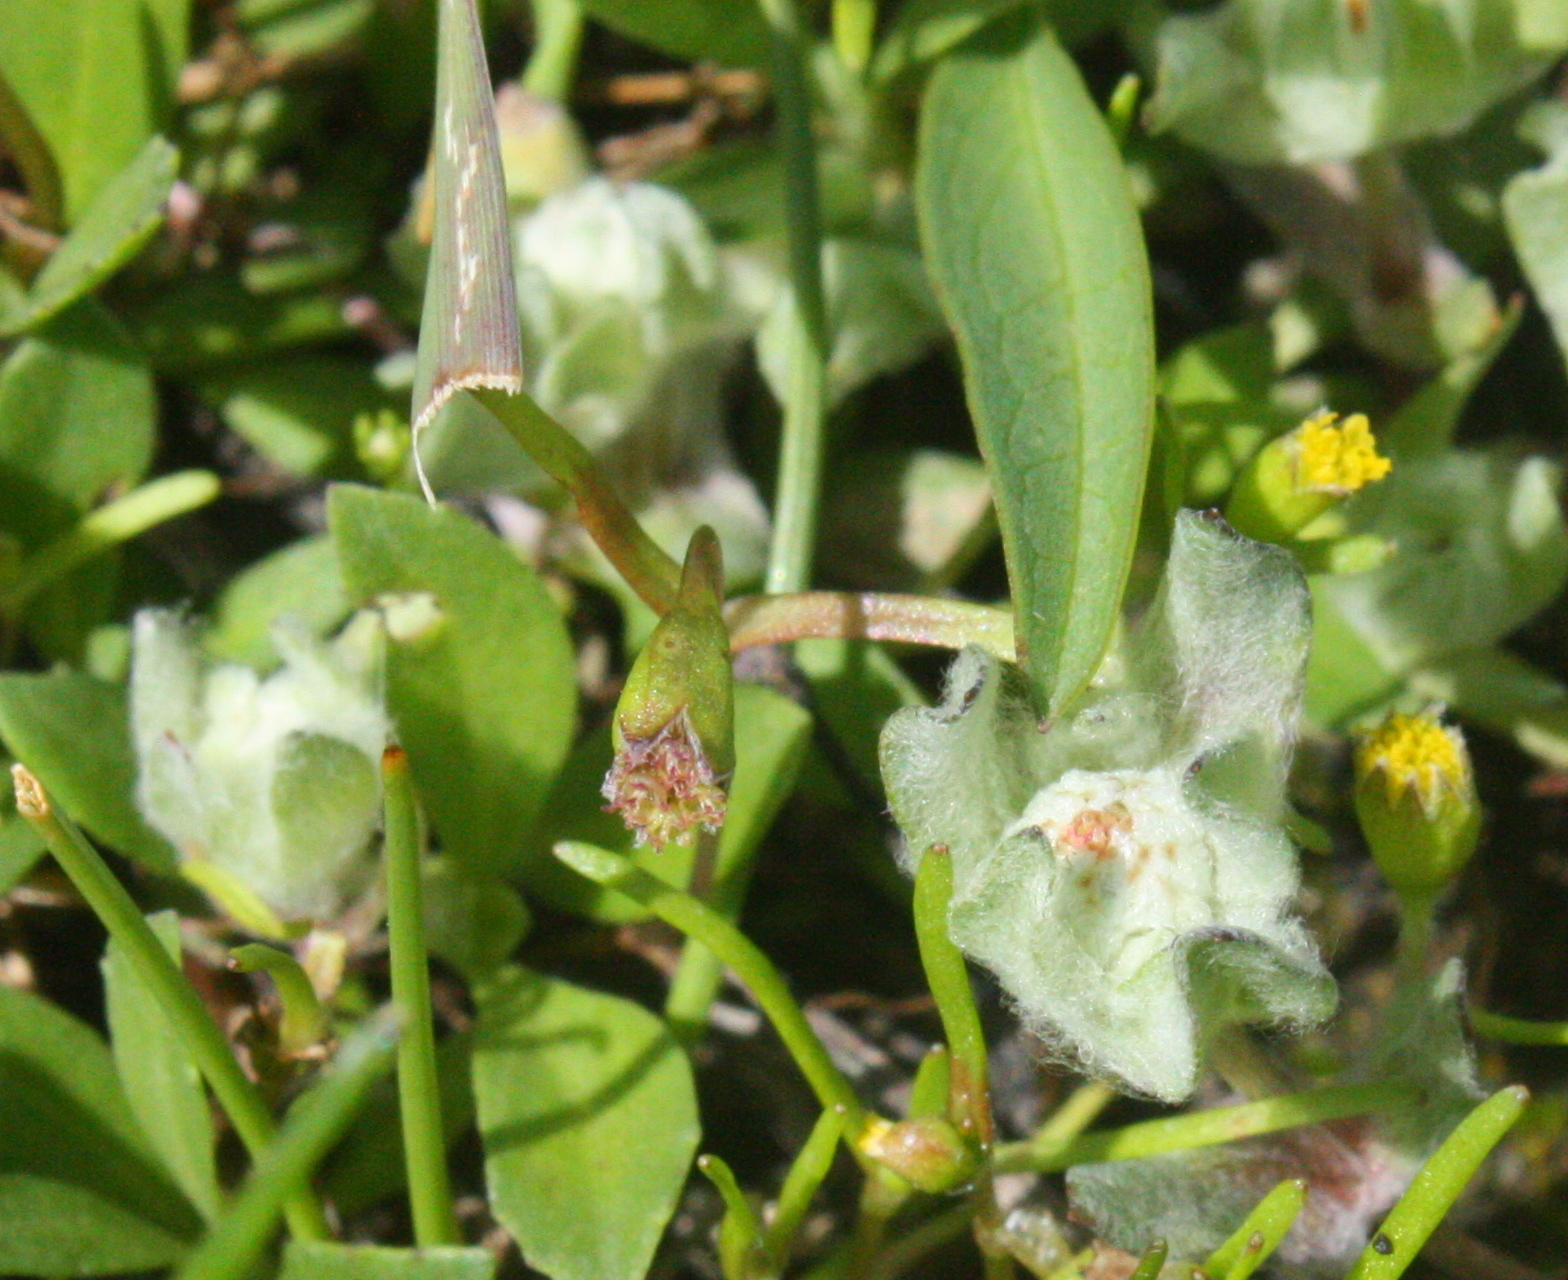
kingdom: Plantae
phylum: Tracheophyta
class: Magnoliopsida
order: Asterales
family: Asteraceae
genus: Psilocarphus
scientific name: Psilocarphus brevissimus
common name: Dwarf woollyheads
